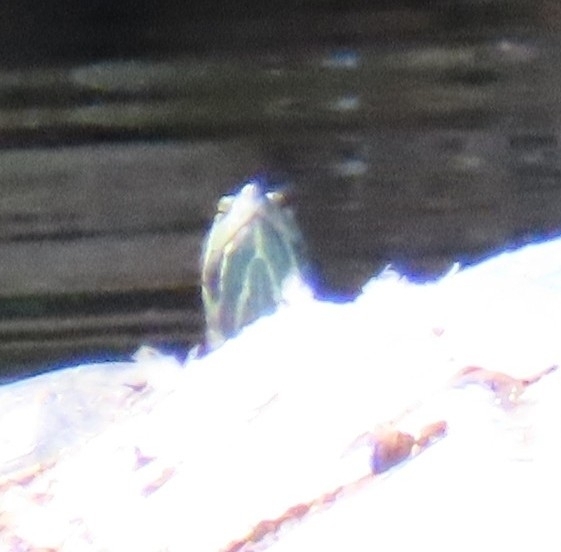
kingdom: Animalia
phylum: Chordata
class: Testudines
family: Emydidae
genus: Trachemys
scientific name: Trachemys scripta
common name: Slider
